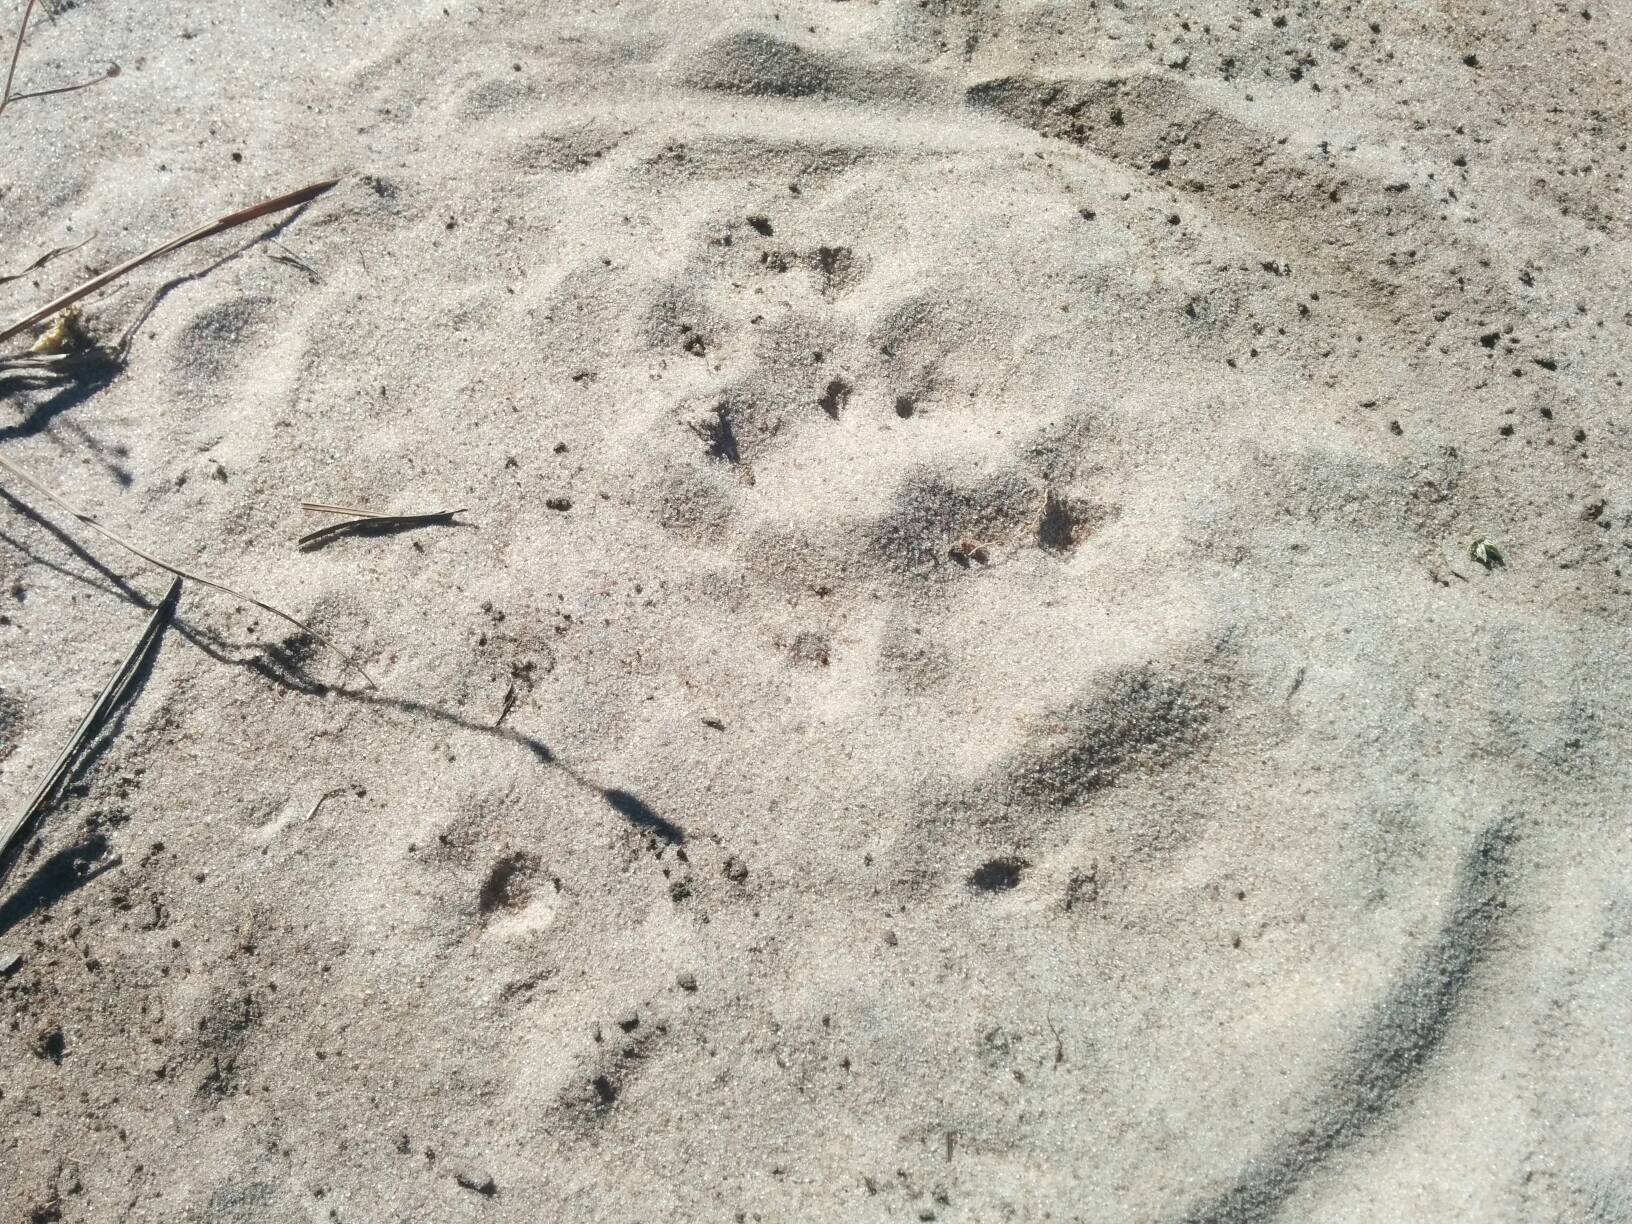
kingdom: Animalia
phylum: Chordata
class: Mammalia
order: Carnivora
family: Felidae
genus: Panthera
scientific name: Panthera pardus
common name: Leopard
